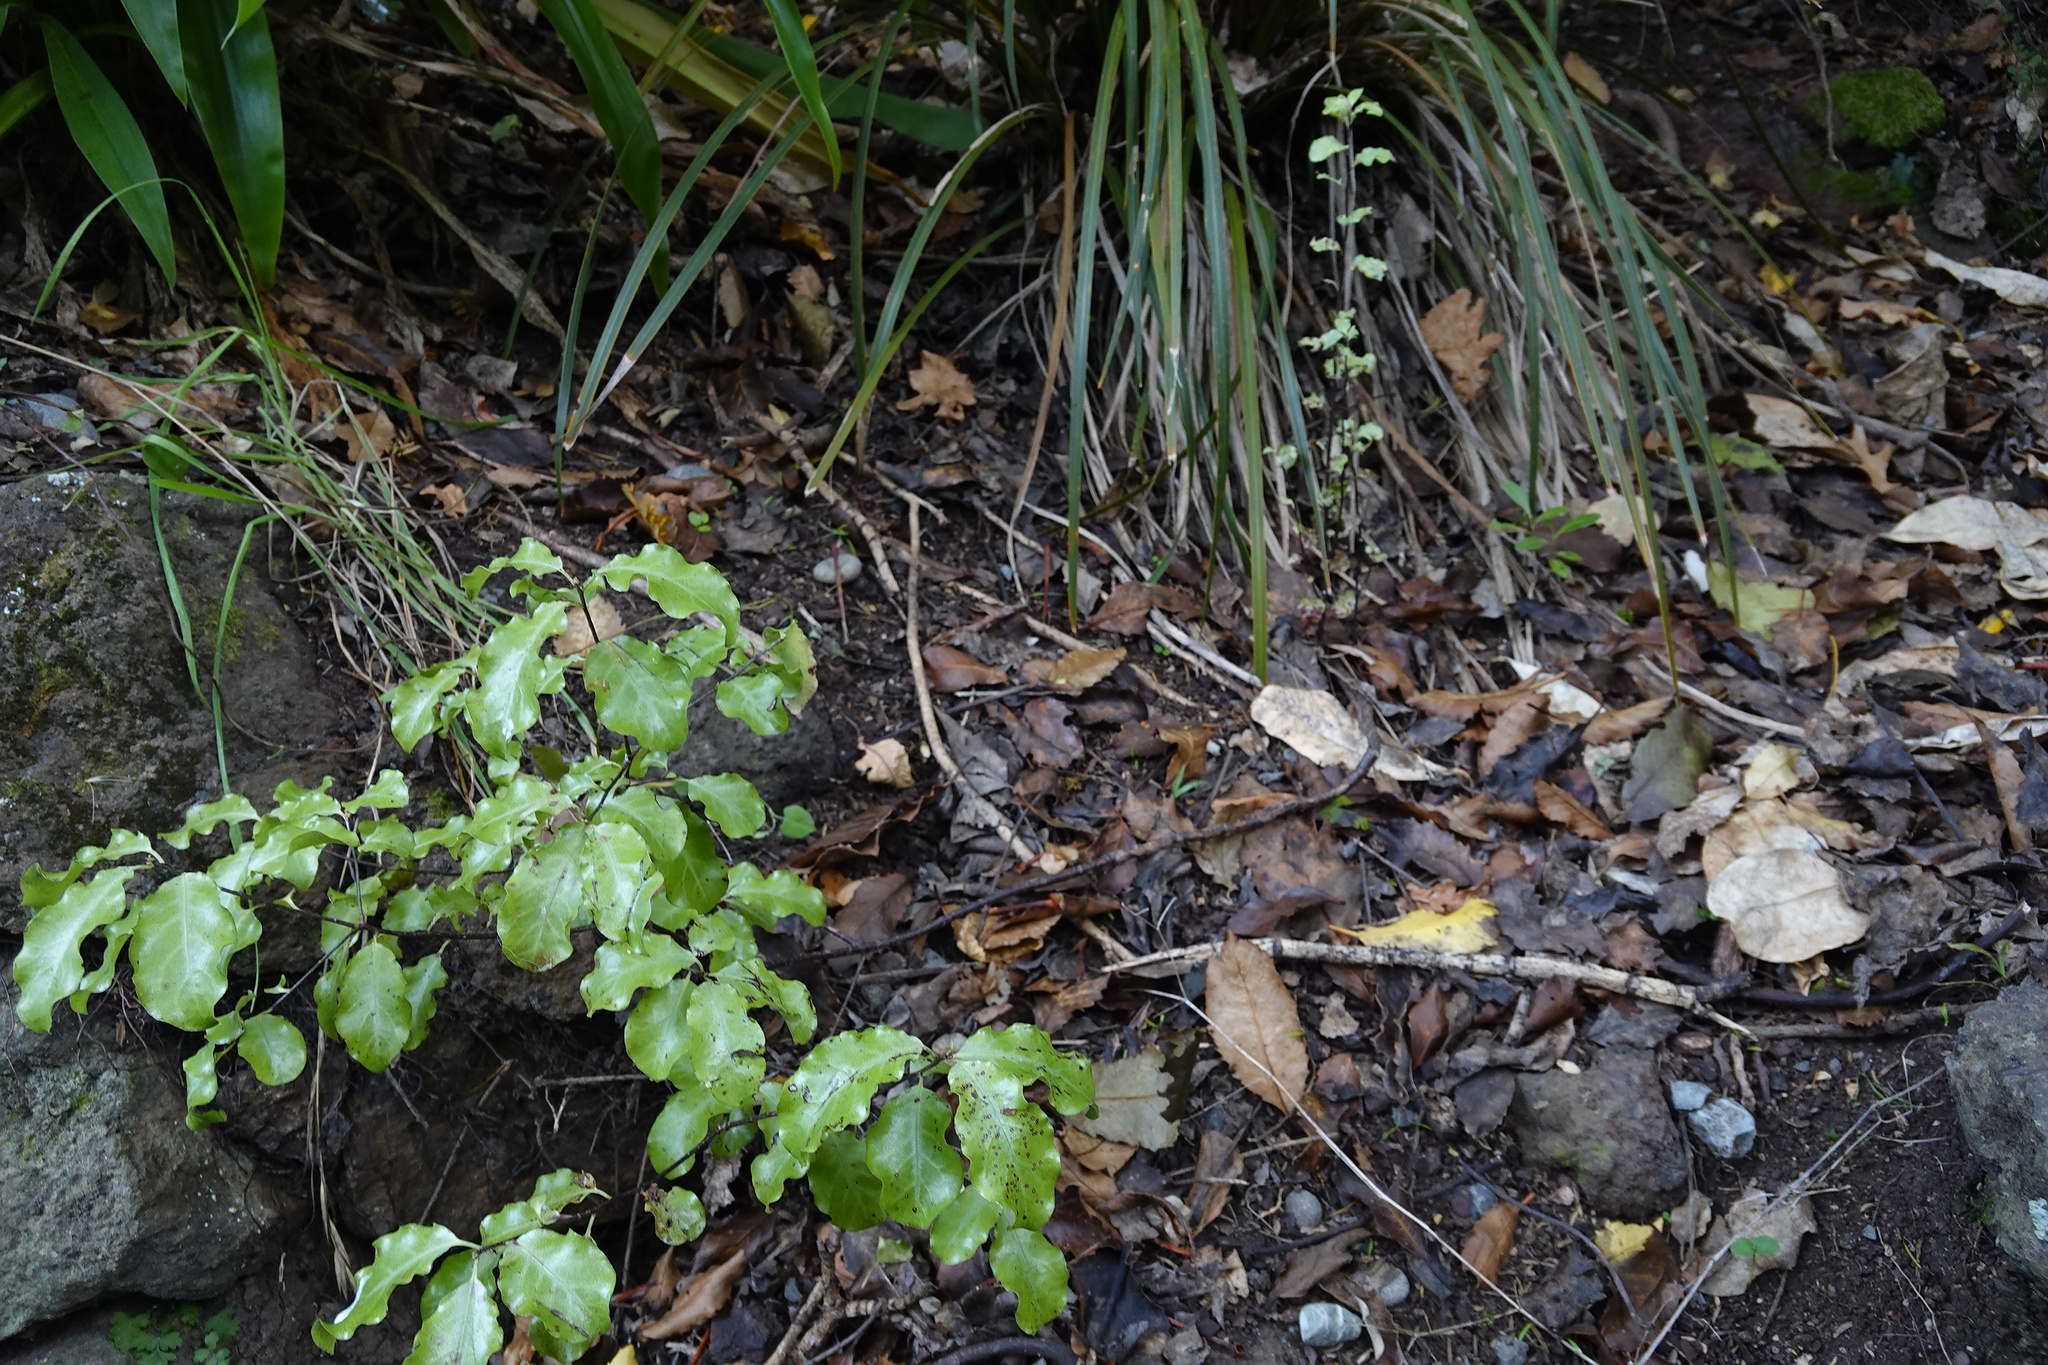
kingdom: Plantae
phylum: Tracheophyta
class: Magnoliopsida
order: Apiales
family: Pittosporaceae
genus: Pittosporum
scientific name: Pittosporum tenuifolium
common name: Kohuhu
